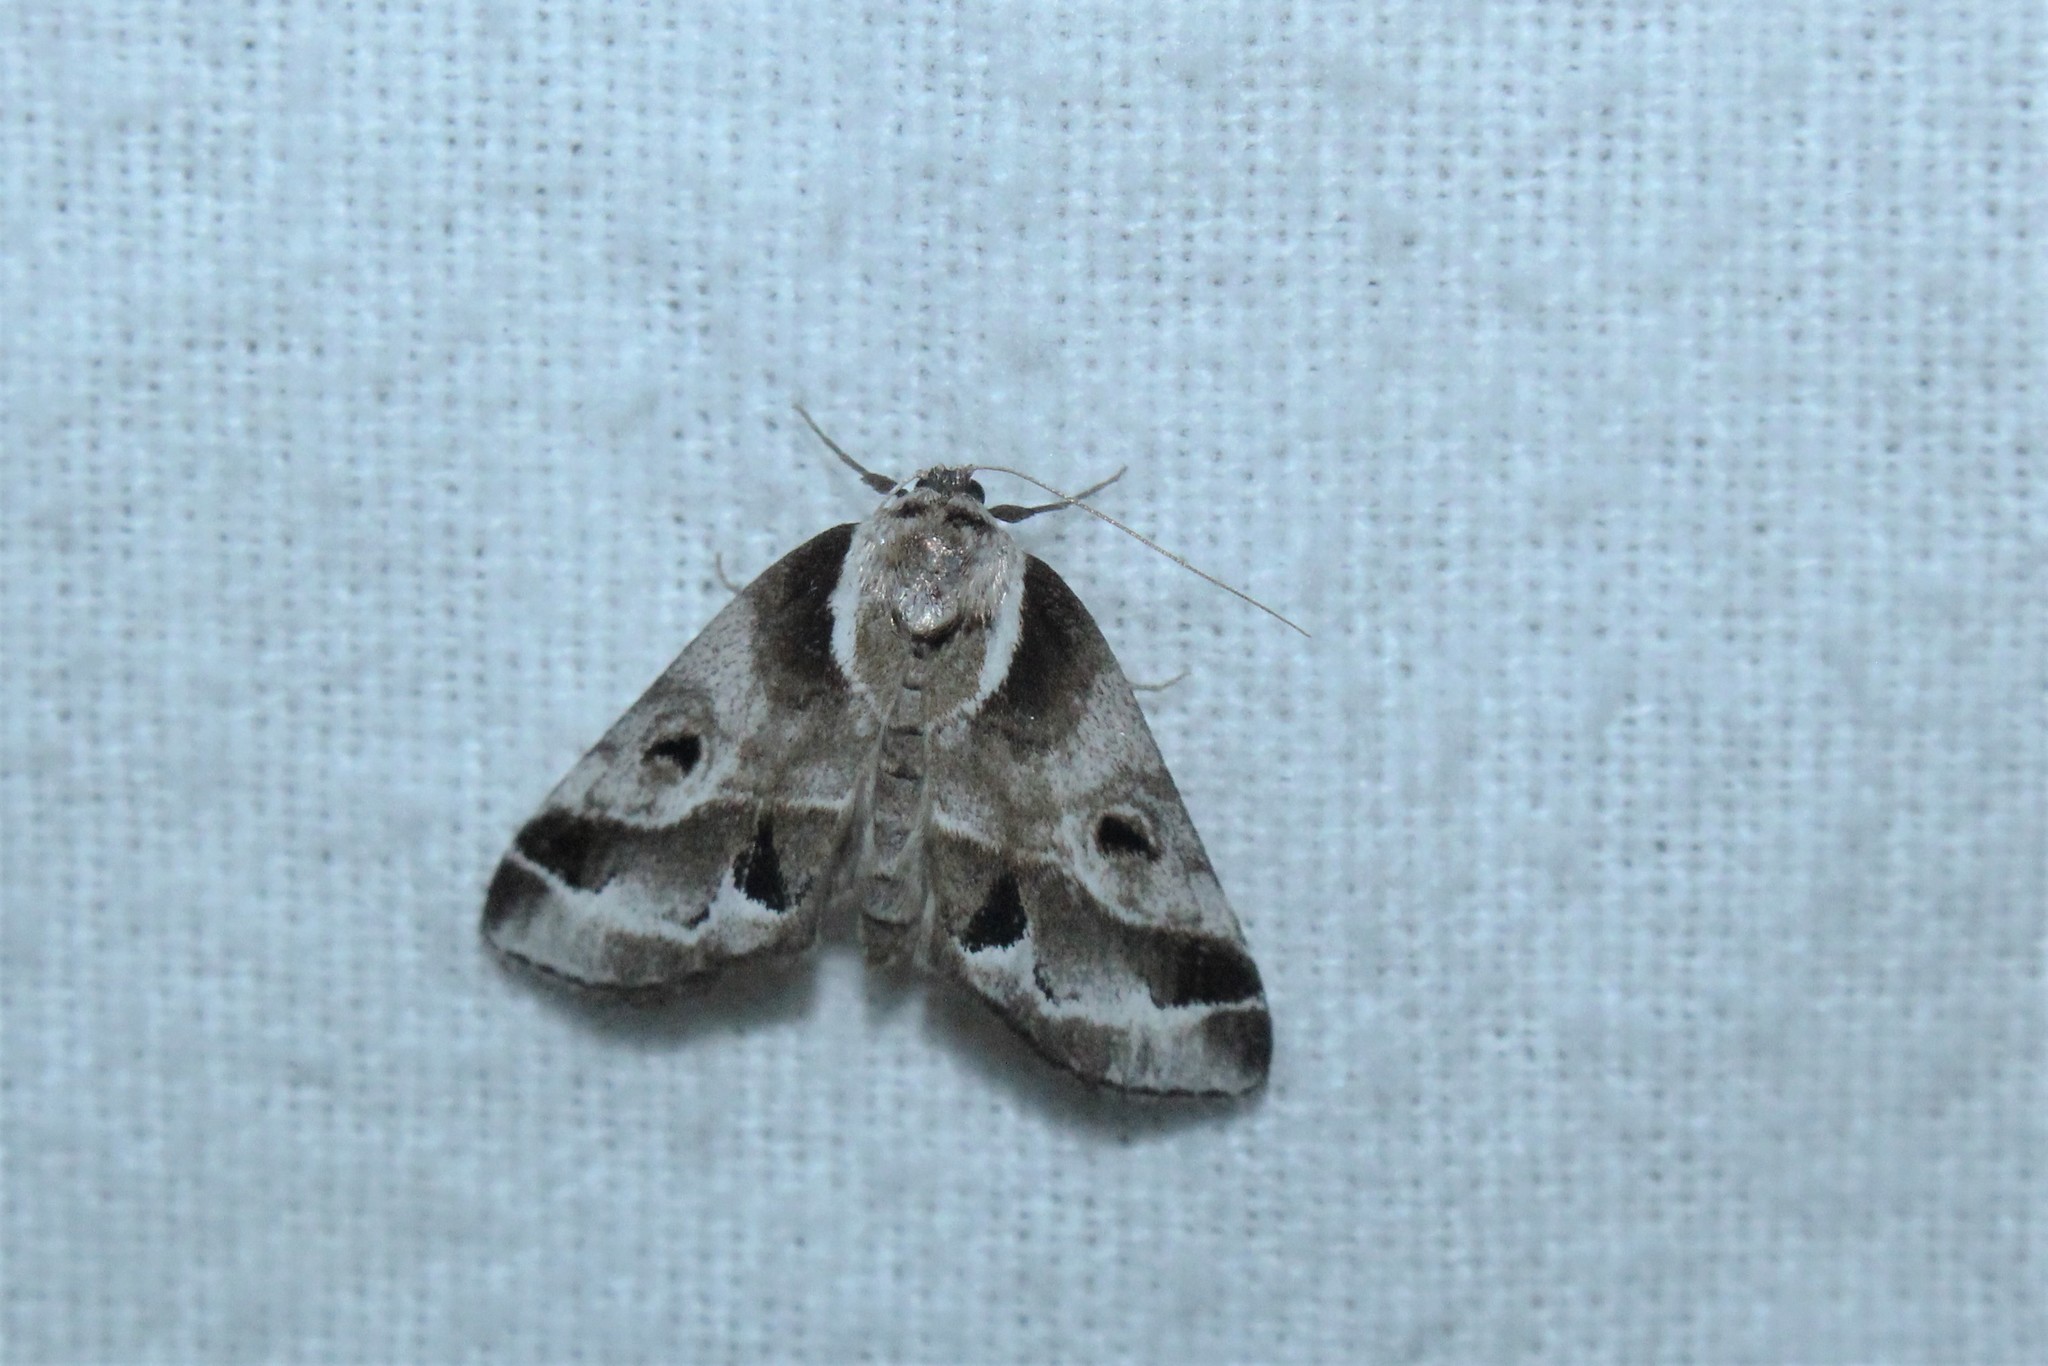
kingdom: Animalia
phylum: Arthropoda
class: Insecta
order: Lepidoptera
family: Nolidae
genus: Baileya
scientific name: Baileya doubledayi
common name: Doubleday's baileya moth
